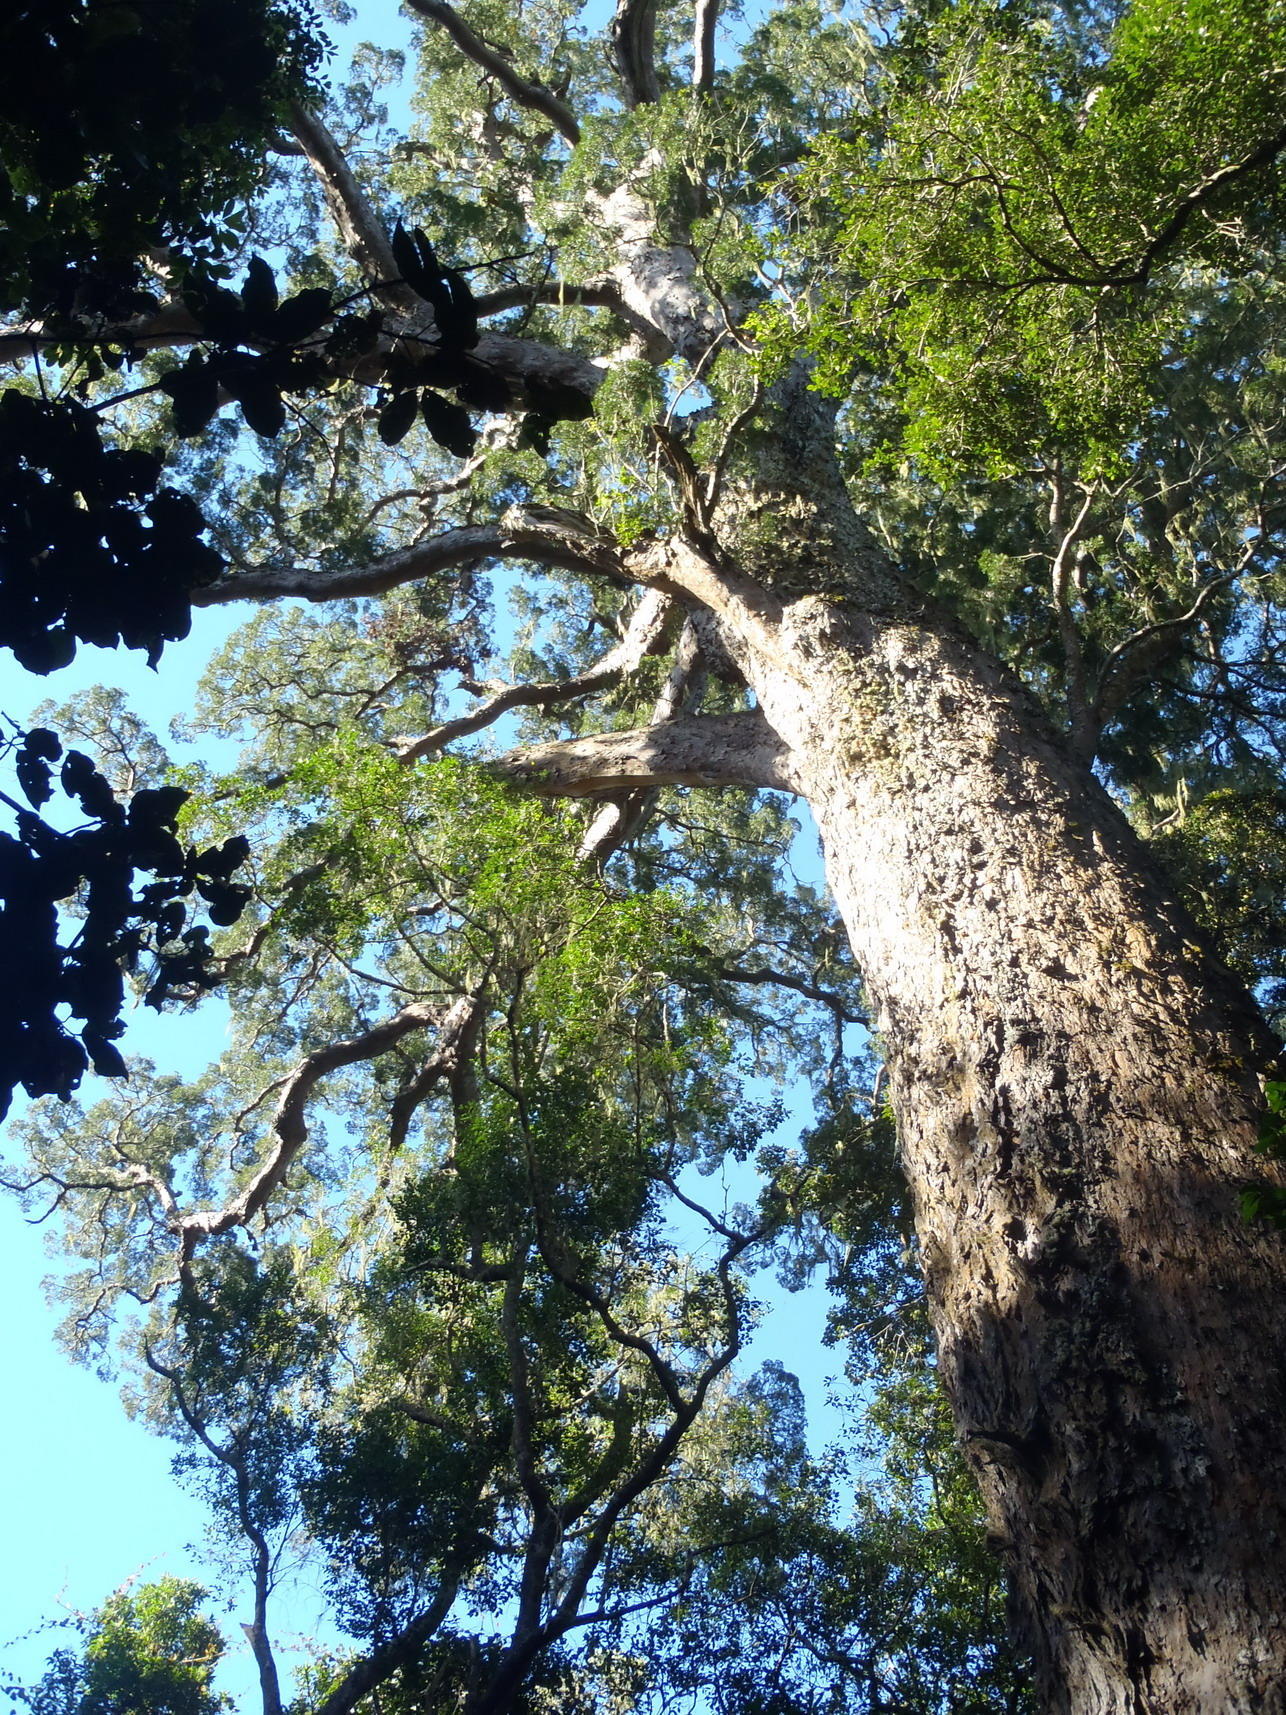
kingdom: Plantae
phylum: Tracheophyta
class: Pinopsida
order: Pinales
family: Podocarpaceae
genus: Afrocarpus
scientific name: Afrocarpus falcatus
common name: Bastard yellowwood
